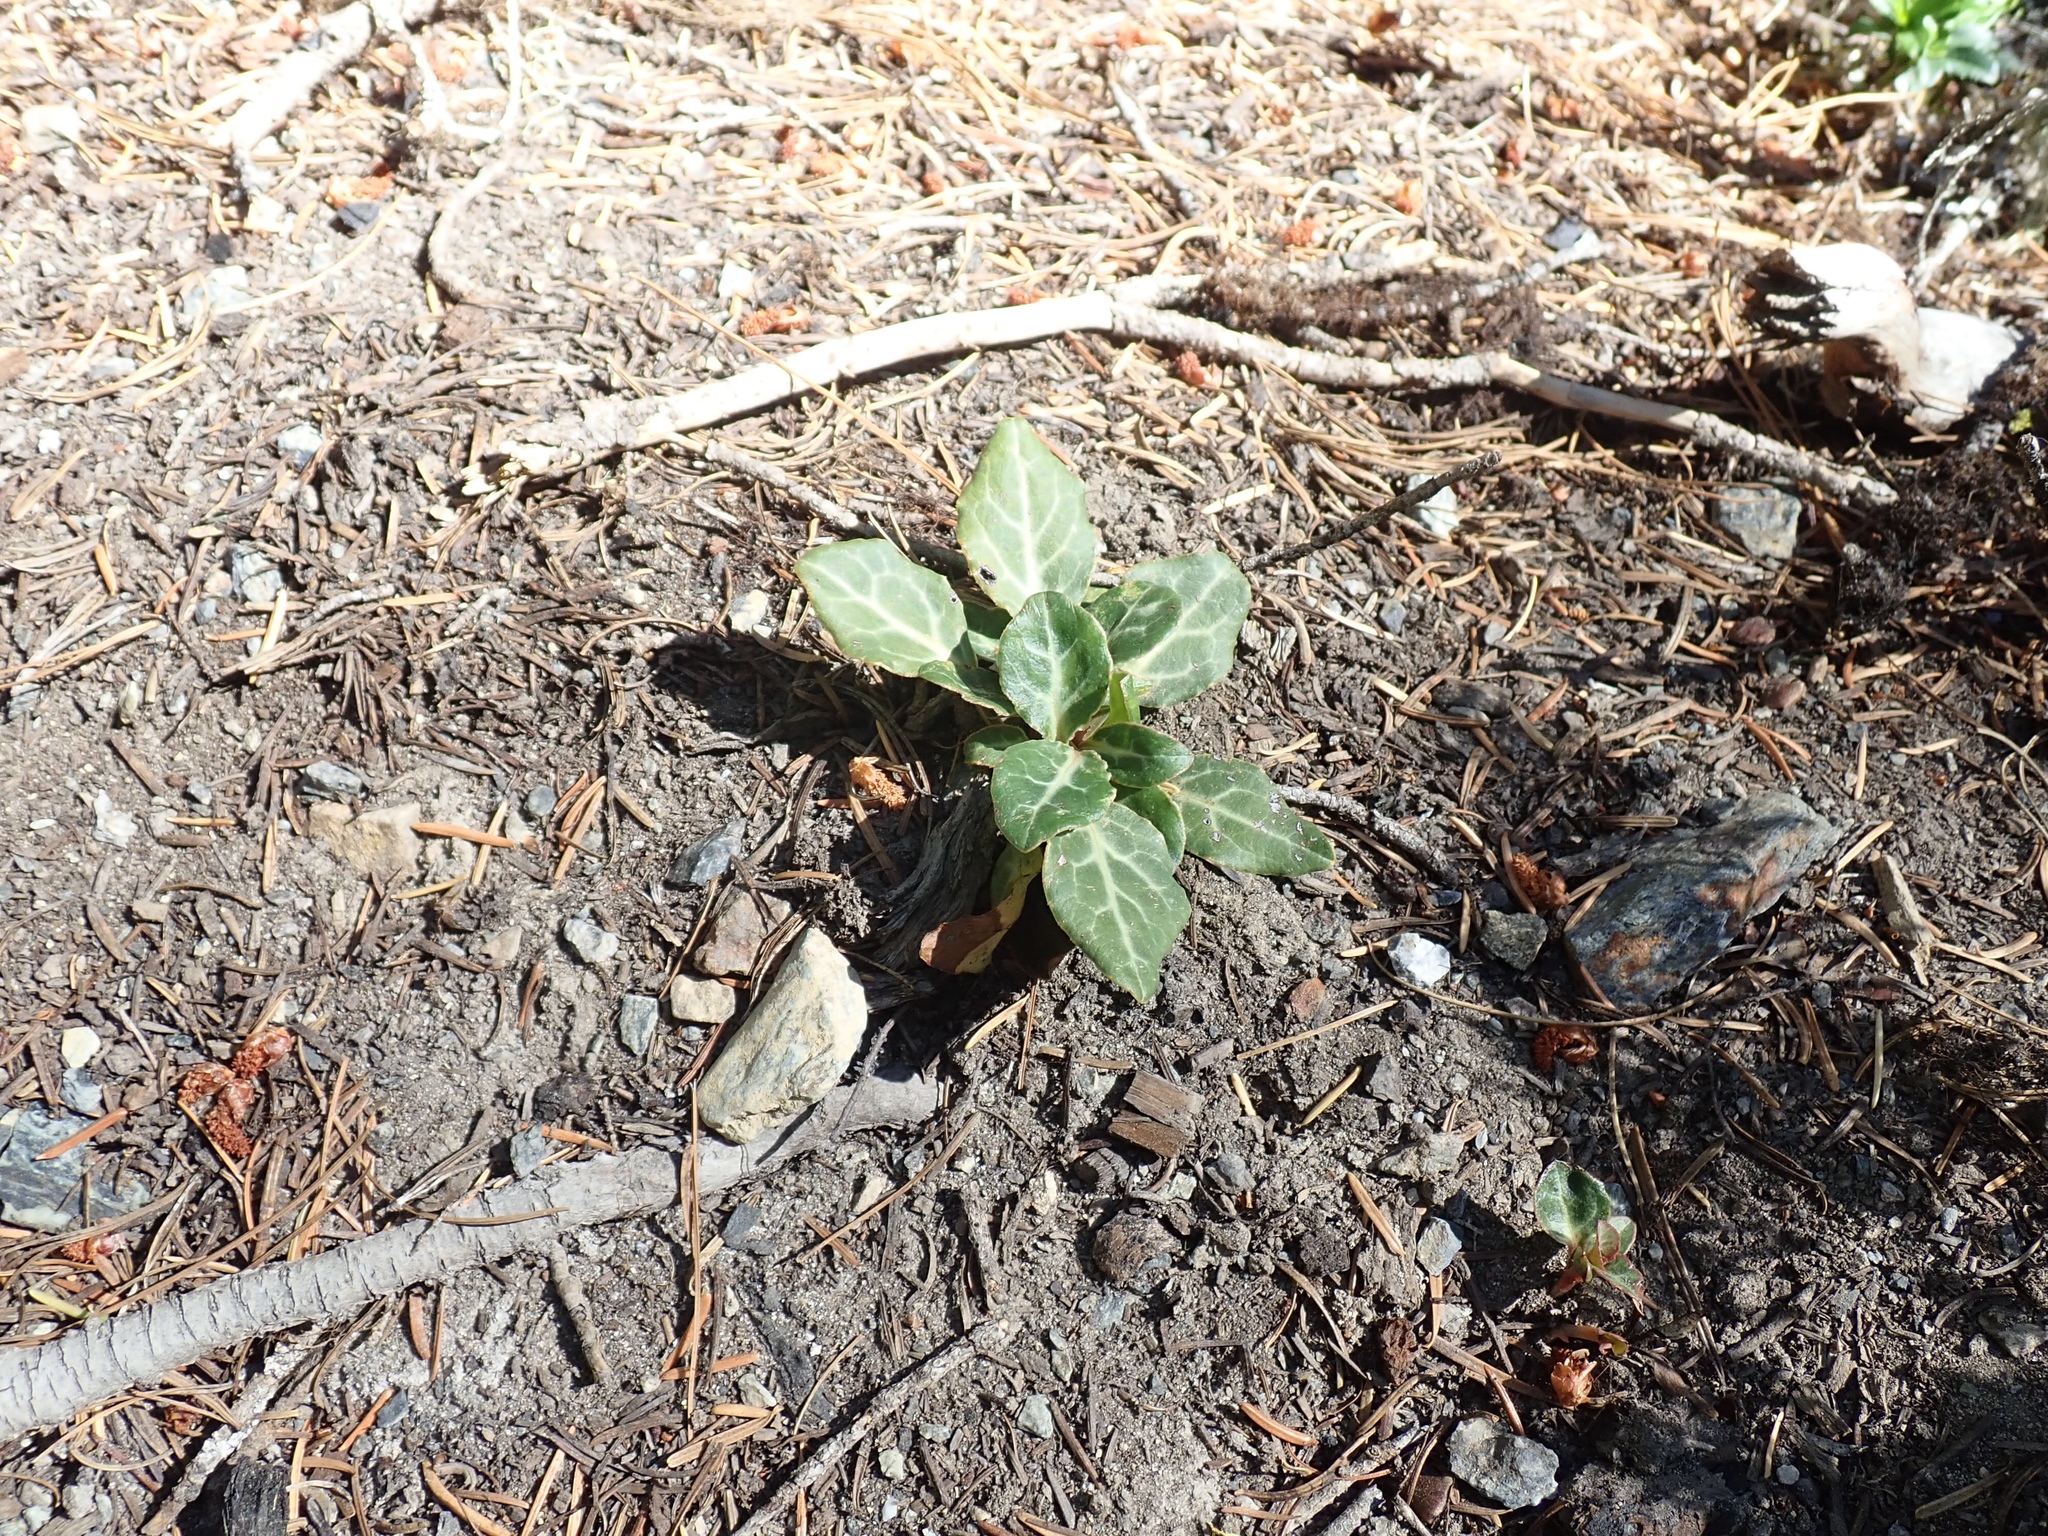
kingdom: Plantae
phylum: Tracheophyta
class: Magnoliopsida
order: Ericales
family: Ericaceae
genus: Pyrola
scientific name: Pyrola dentata
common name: Tooth-leaved wintergreen
